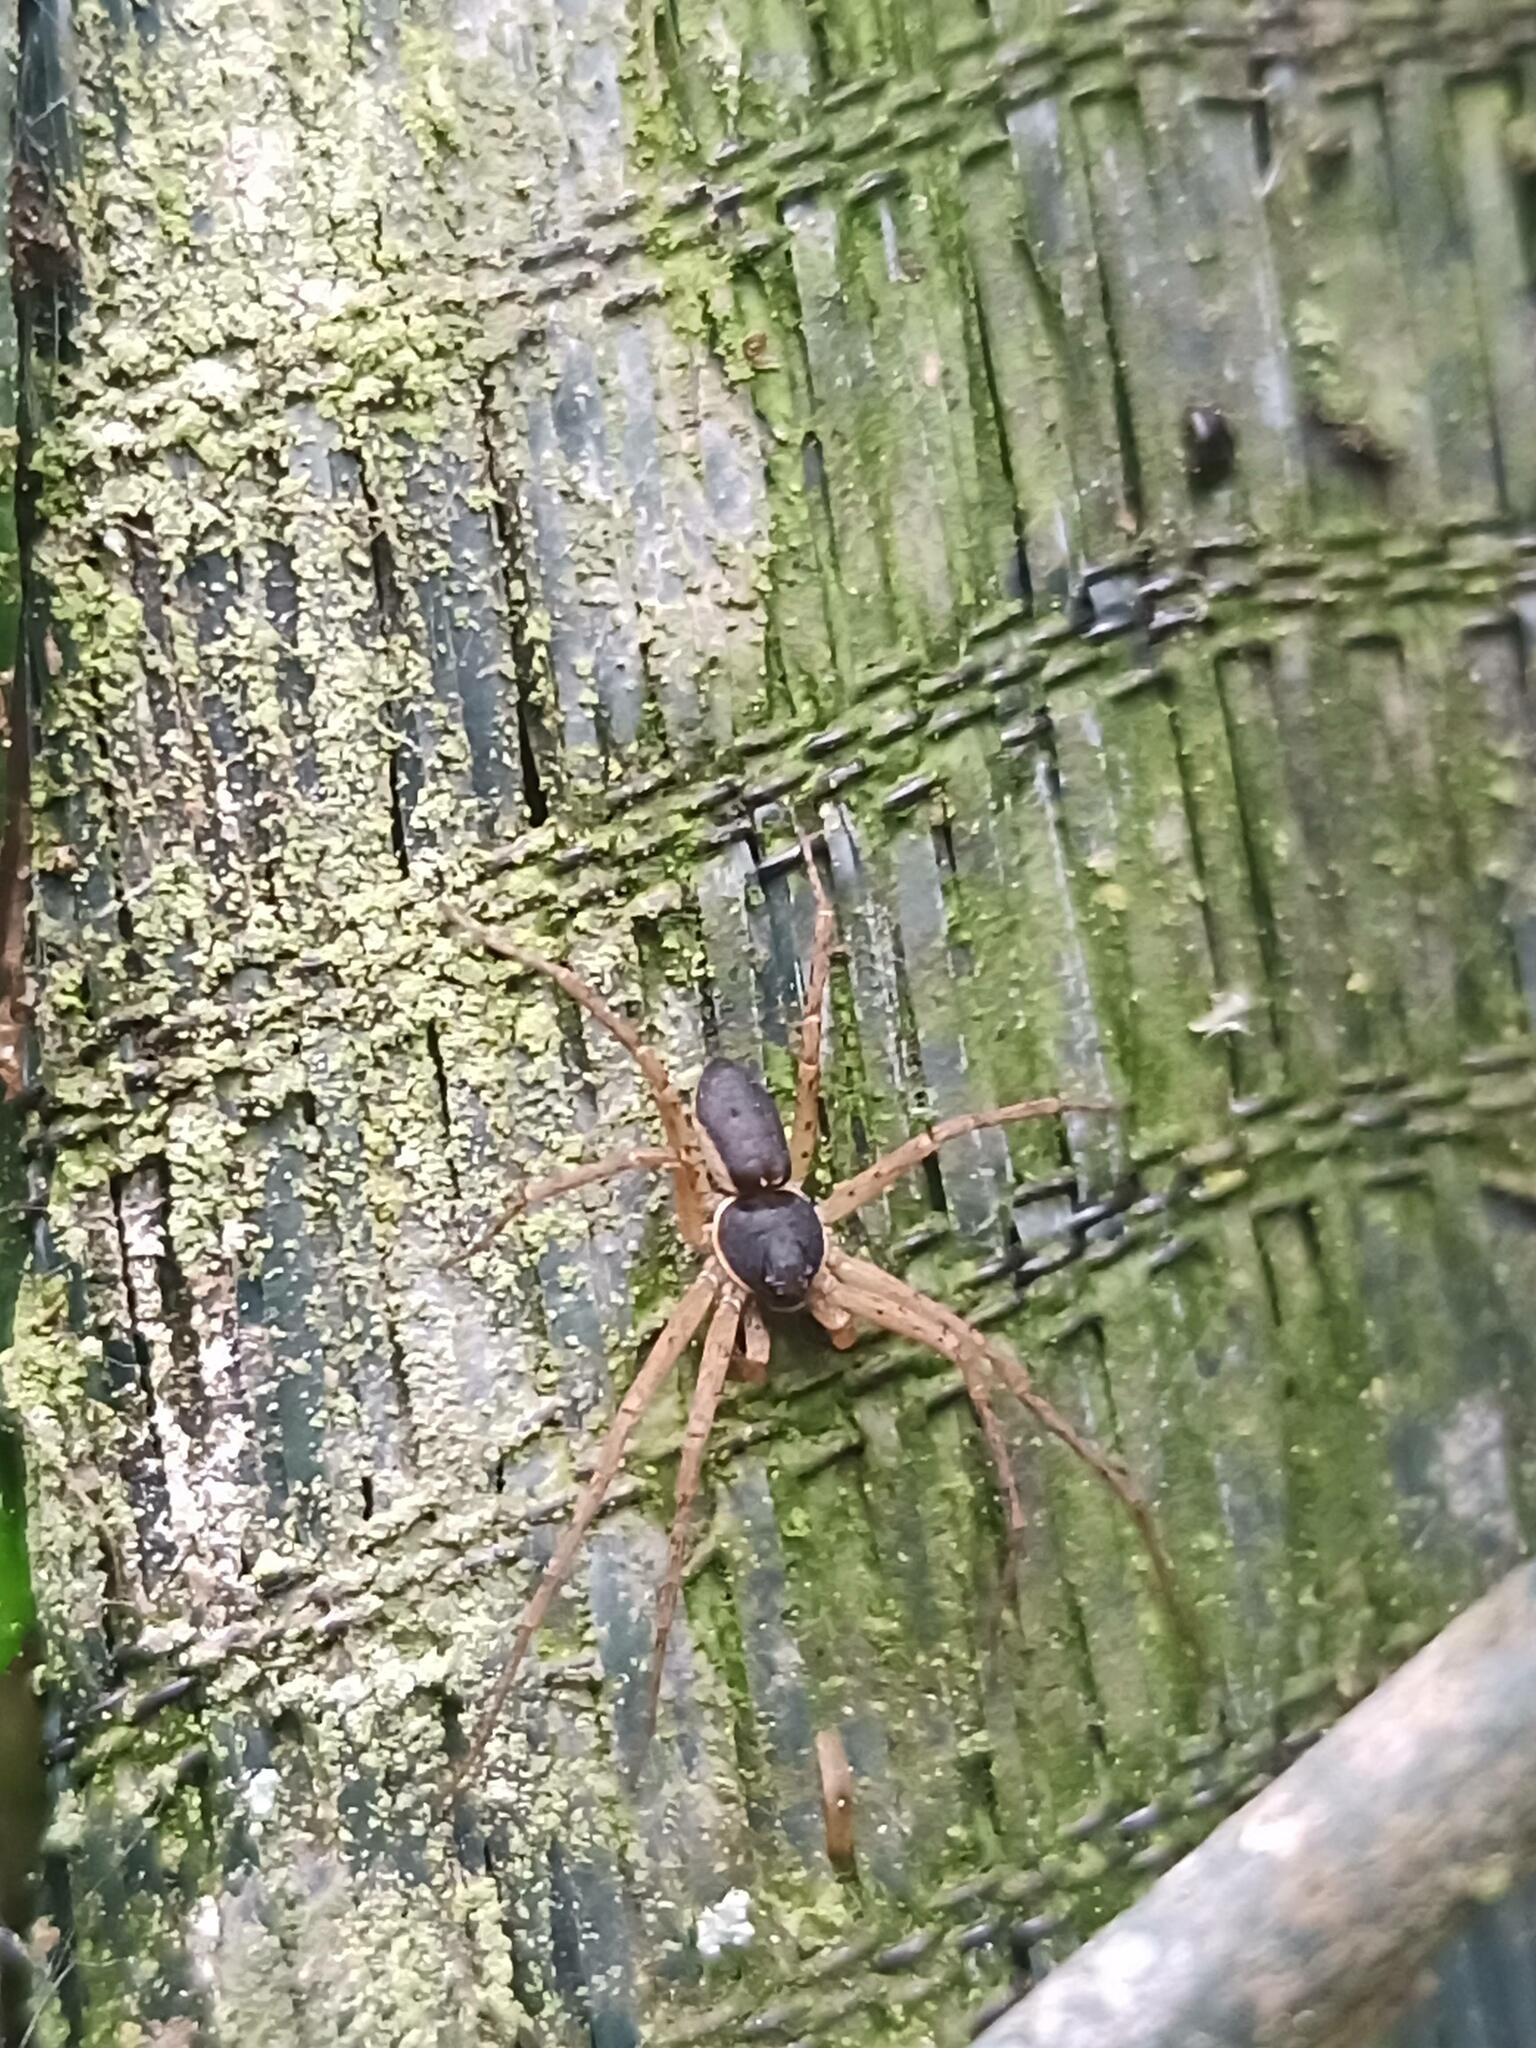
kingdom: Animalia
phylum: Arthropoda
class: Arachnida
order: Araneae
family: Philodromidae
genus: Philodromus
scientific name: Philodromus dispar
